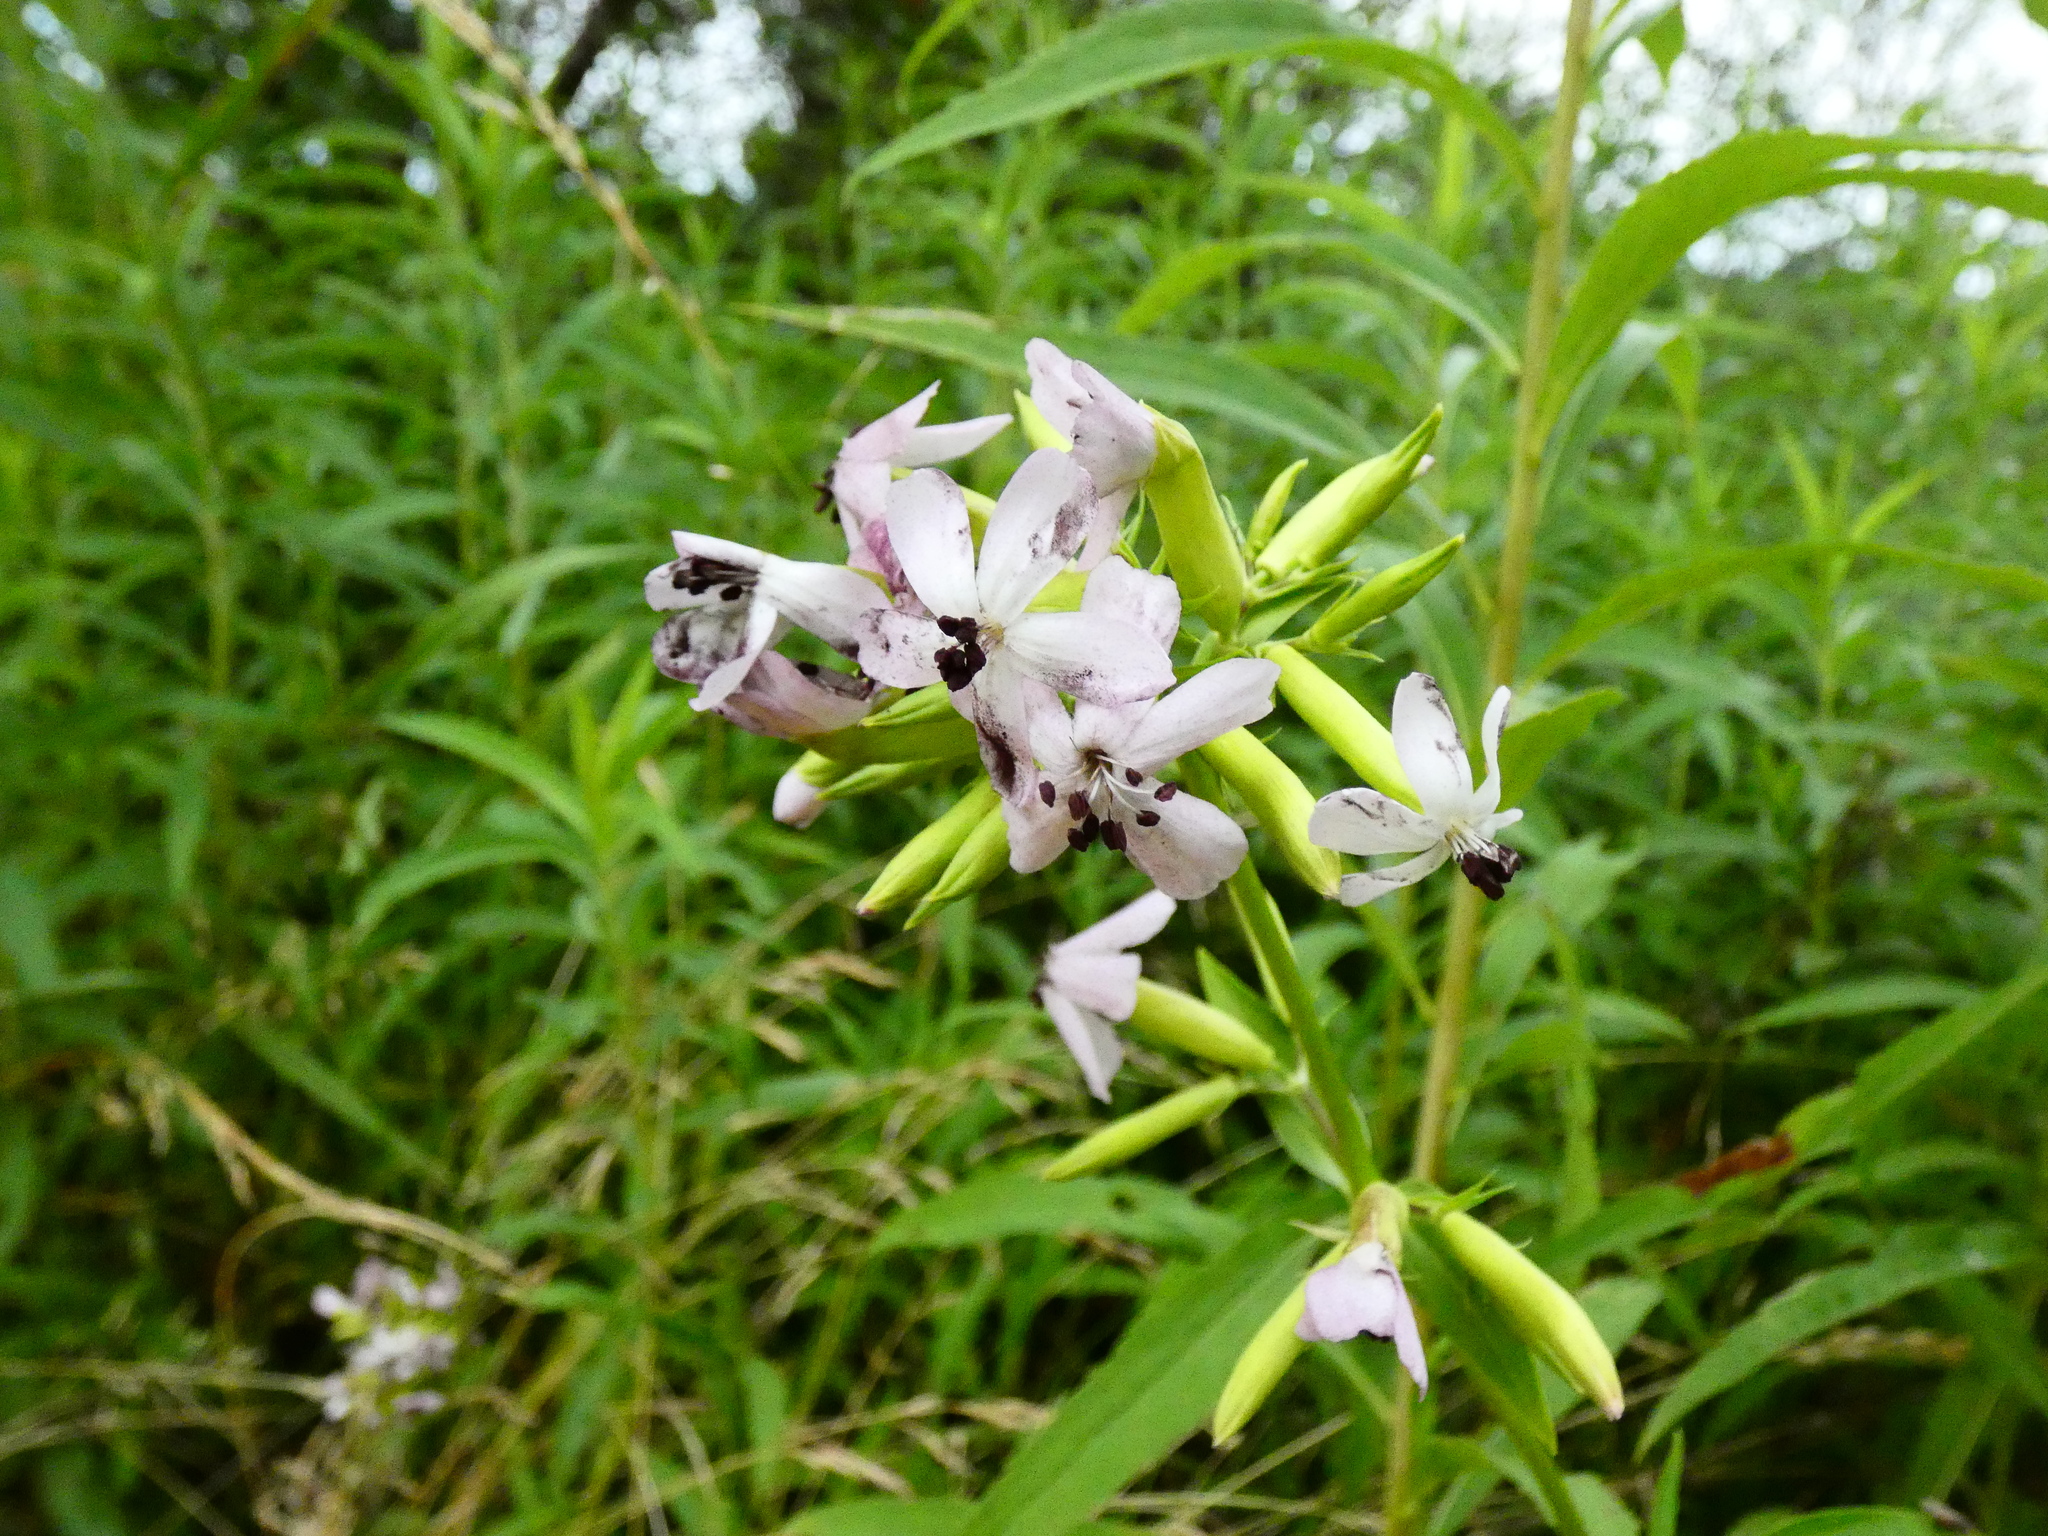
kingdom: Plantae
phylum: Tracheophyta
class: Magnoliopsida
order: Caryophyllales
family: Caryophyllaceae
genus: Saponaria
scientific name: Saponaria officinalis
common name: Soapwort
